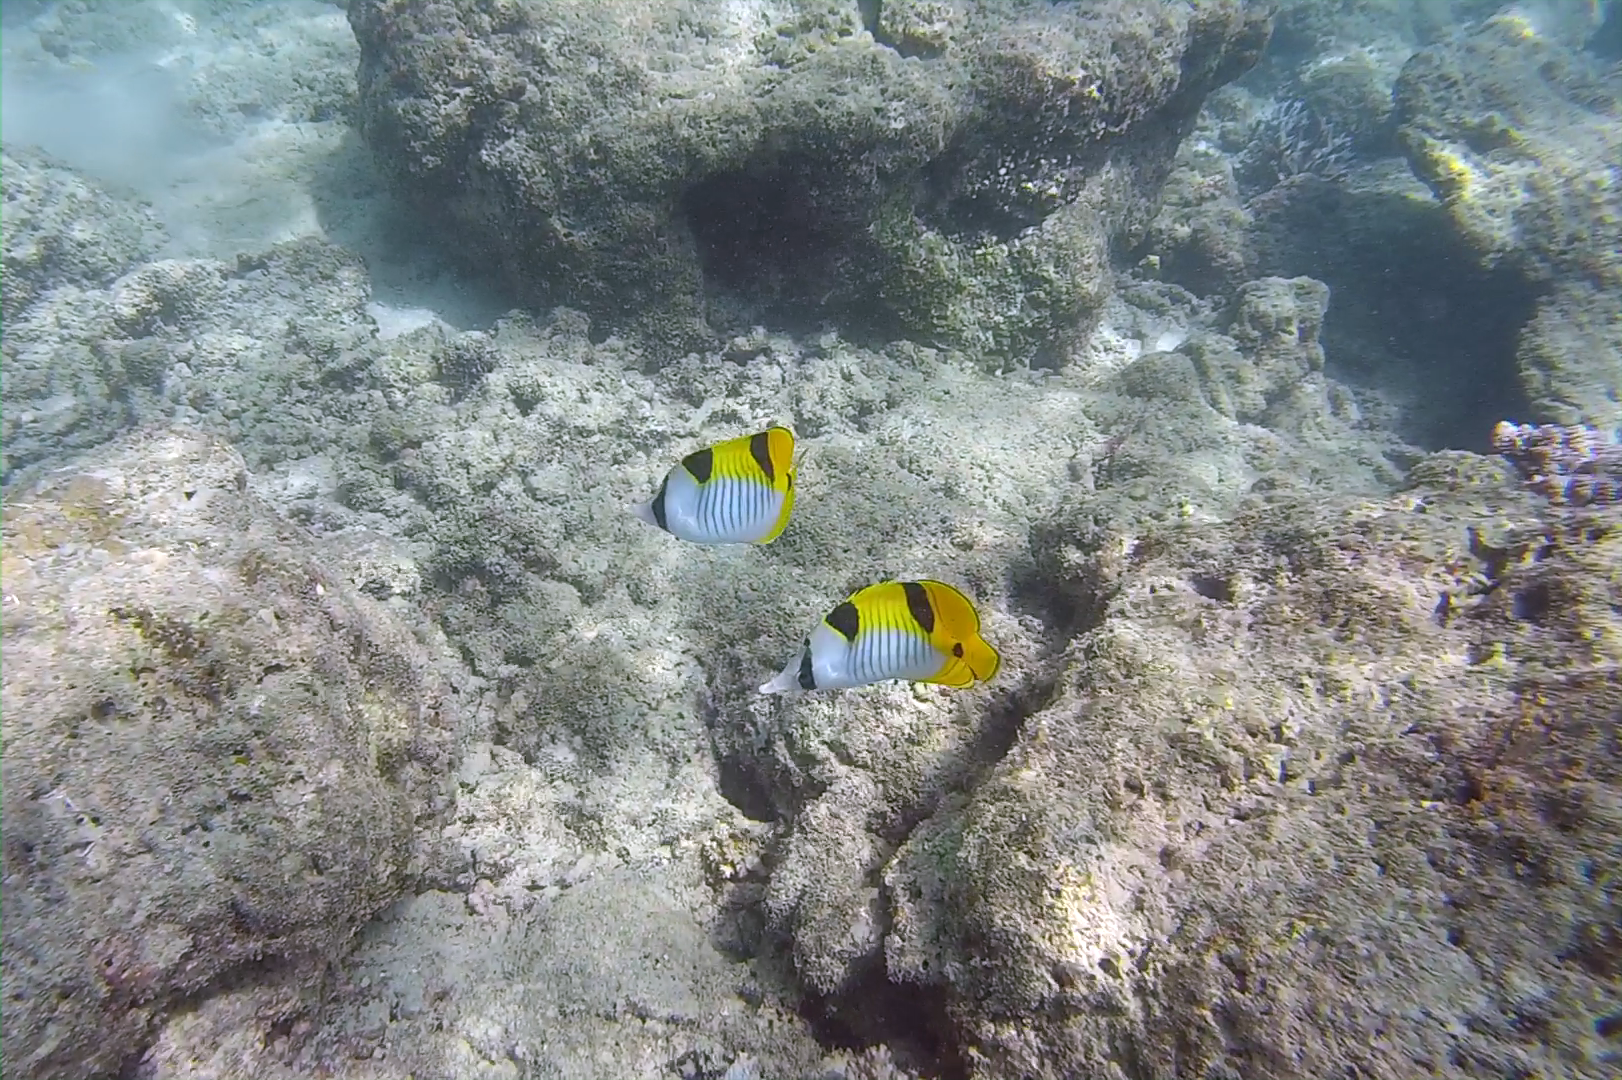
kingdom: Animalia
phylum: Chordata
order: Perciformes
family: Chaetodontidae
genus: Chaetodon
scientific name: Chaetodon falcula
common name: Blackwedged butterflyfish
